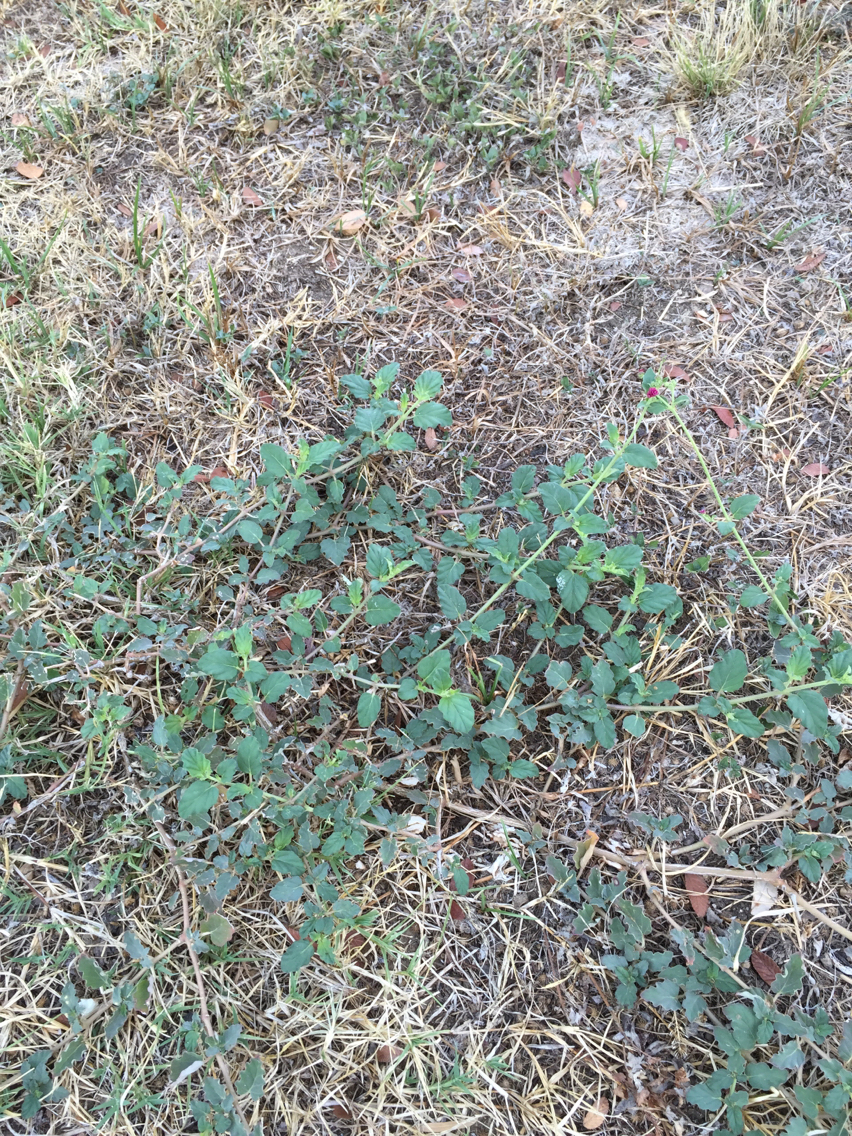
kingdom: Plantae
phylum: Tracheophyta
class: Magnoliopsida
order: Caryophyllales
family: Nyctaginaceae
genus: Boerhavia
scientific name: Boerhavia coccinea
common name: Scarlet spiderling
